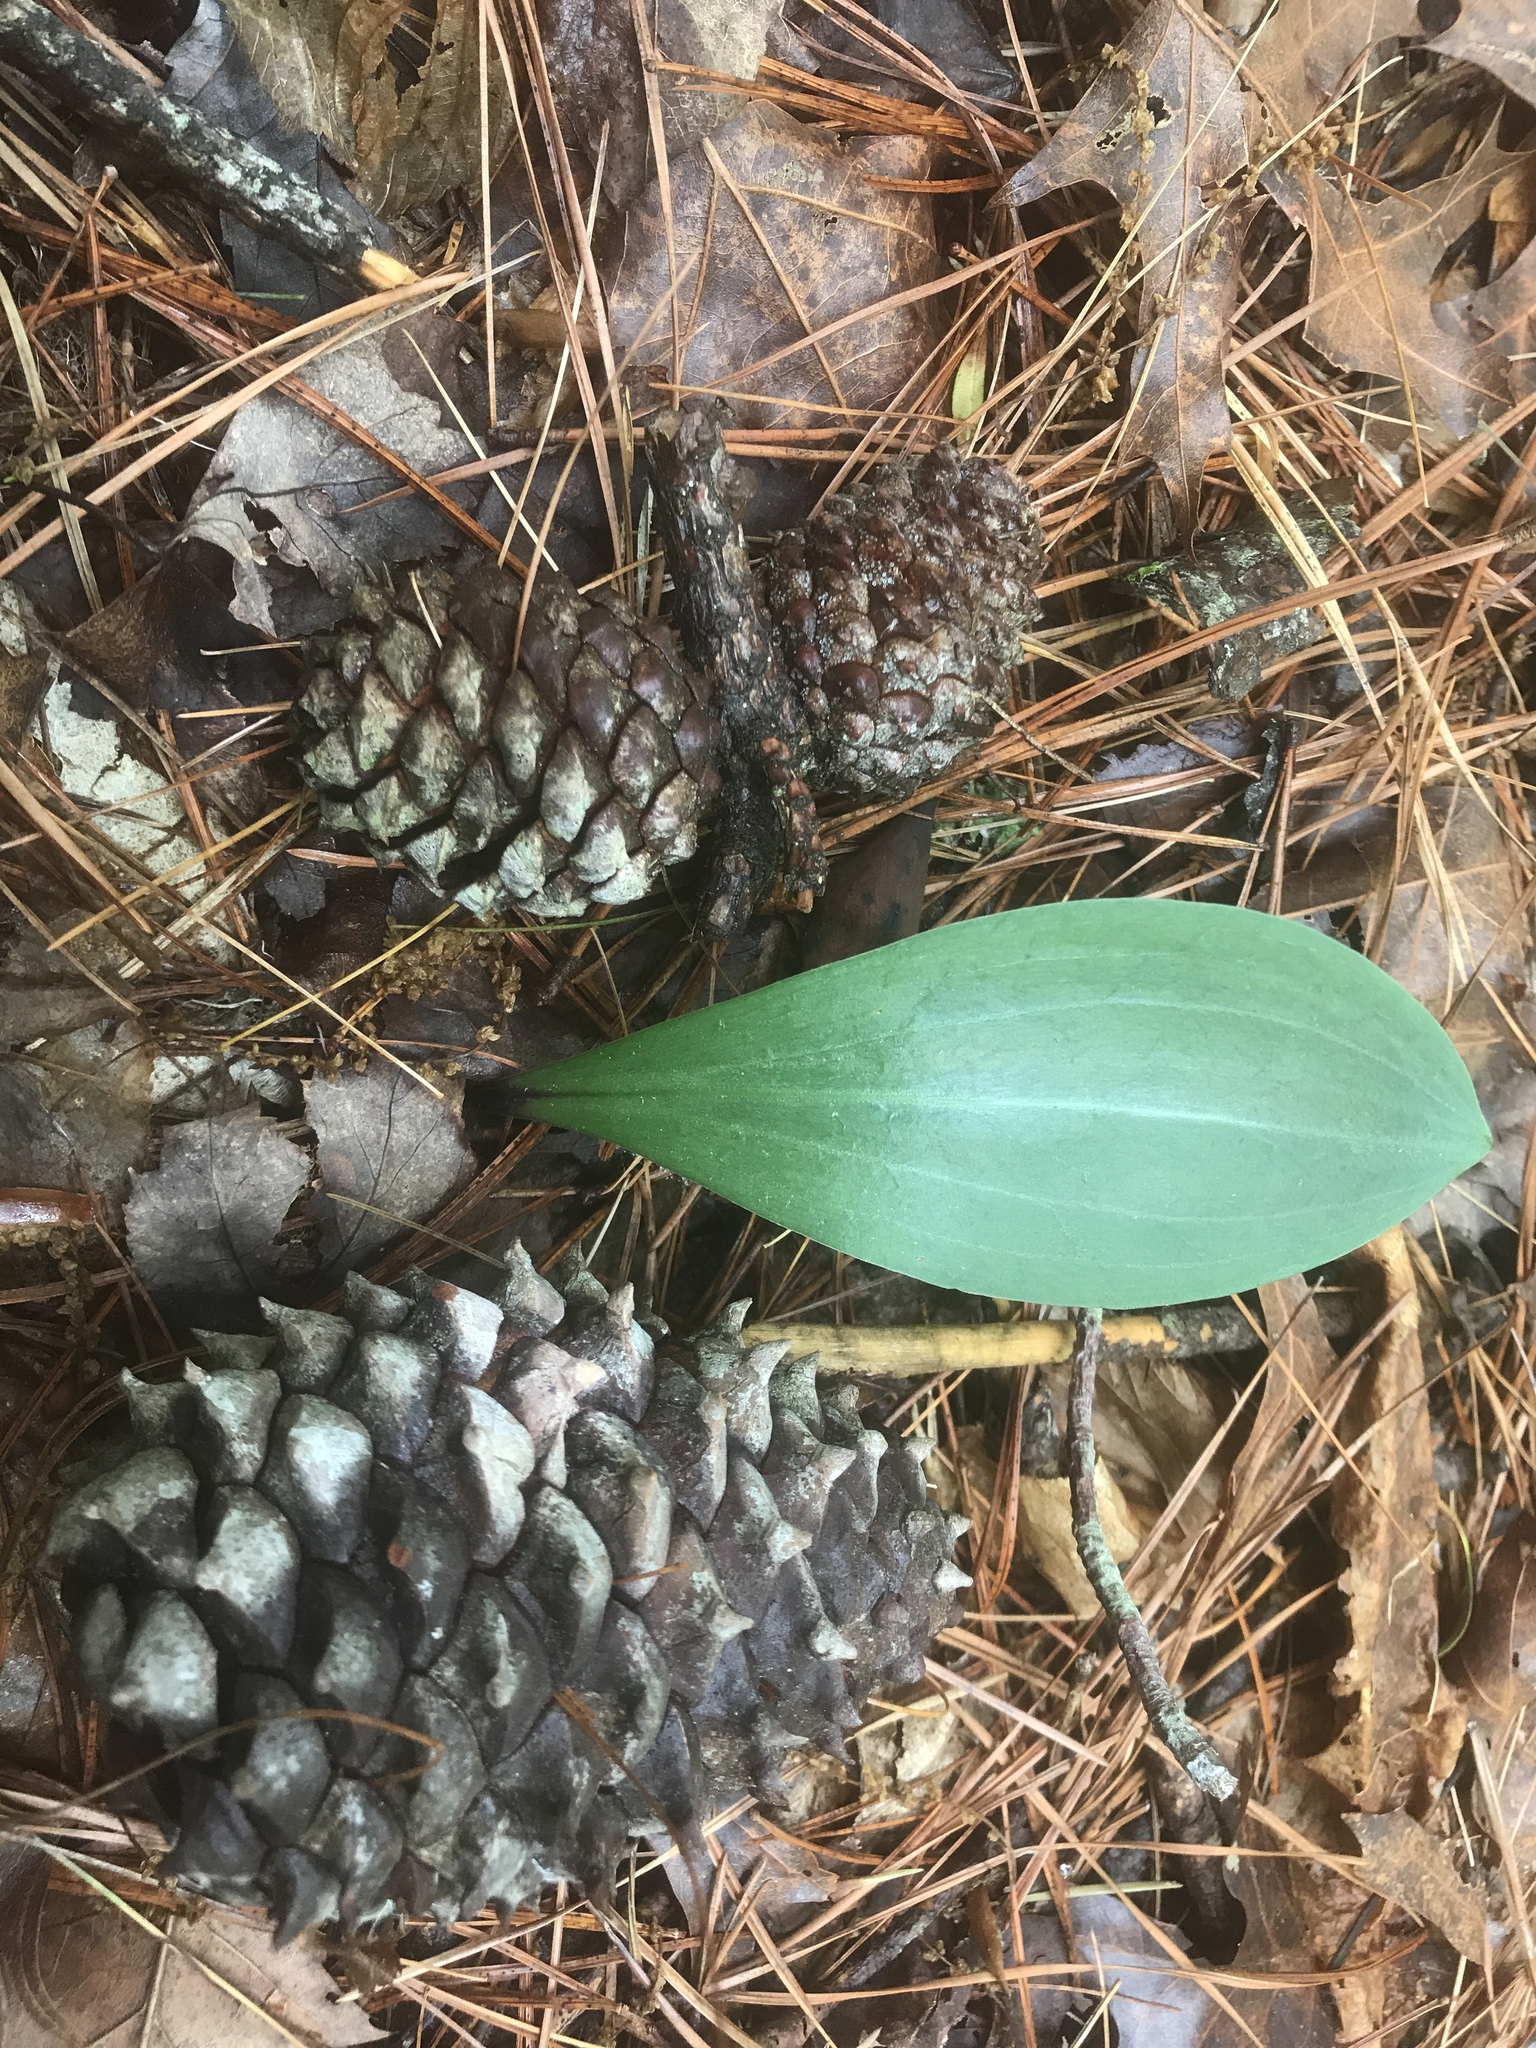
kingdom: Plantae
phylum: Tracheophyta
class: Liliopsida
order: Liliales
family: Liliaceae
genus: Lilium
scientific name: Lilium michauxii
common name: Carolina lily
